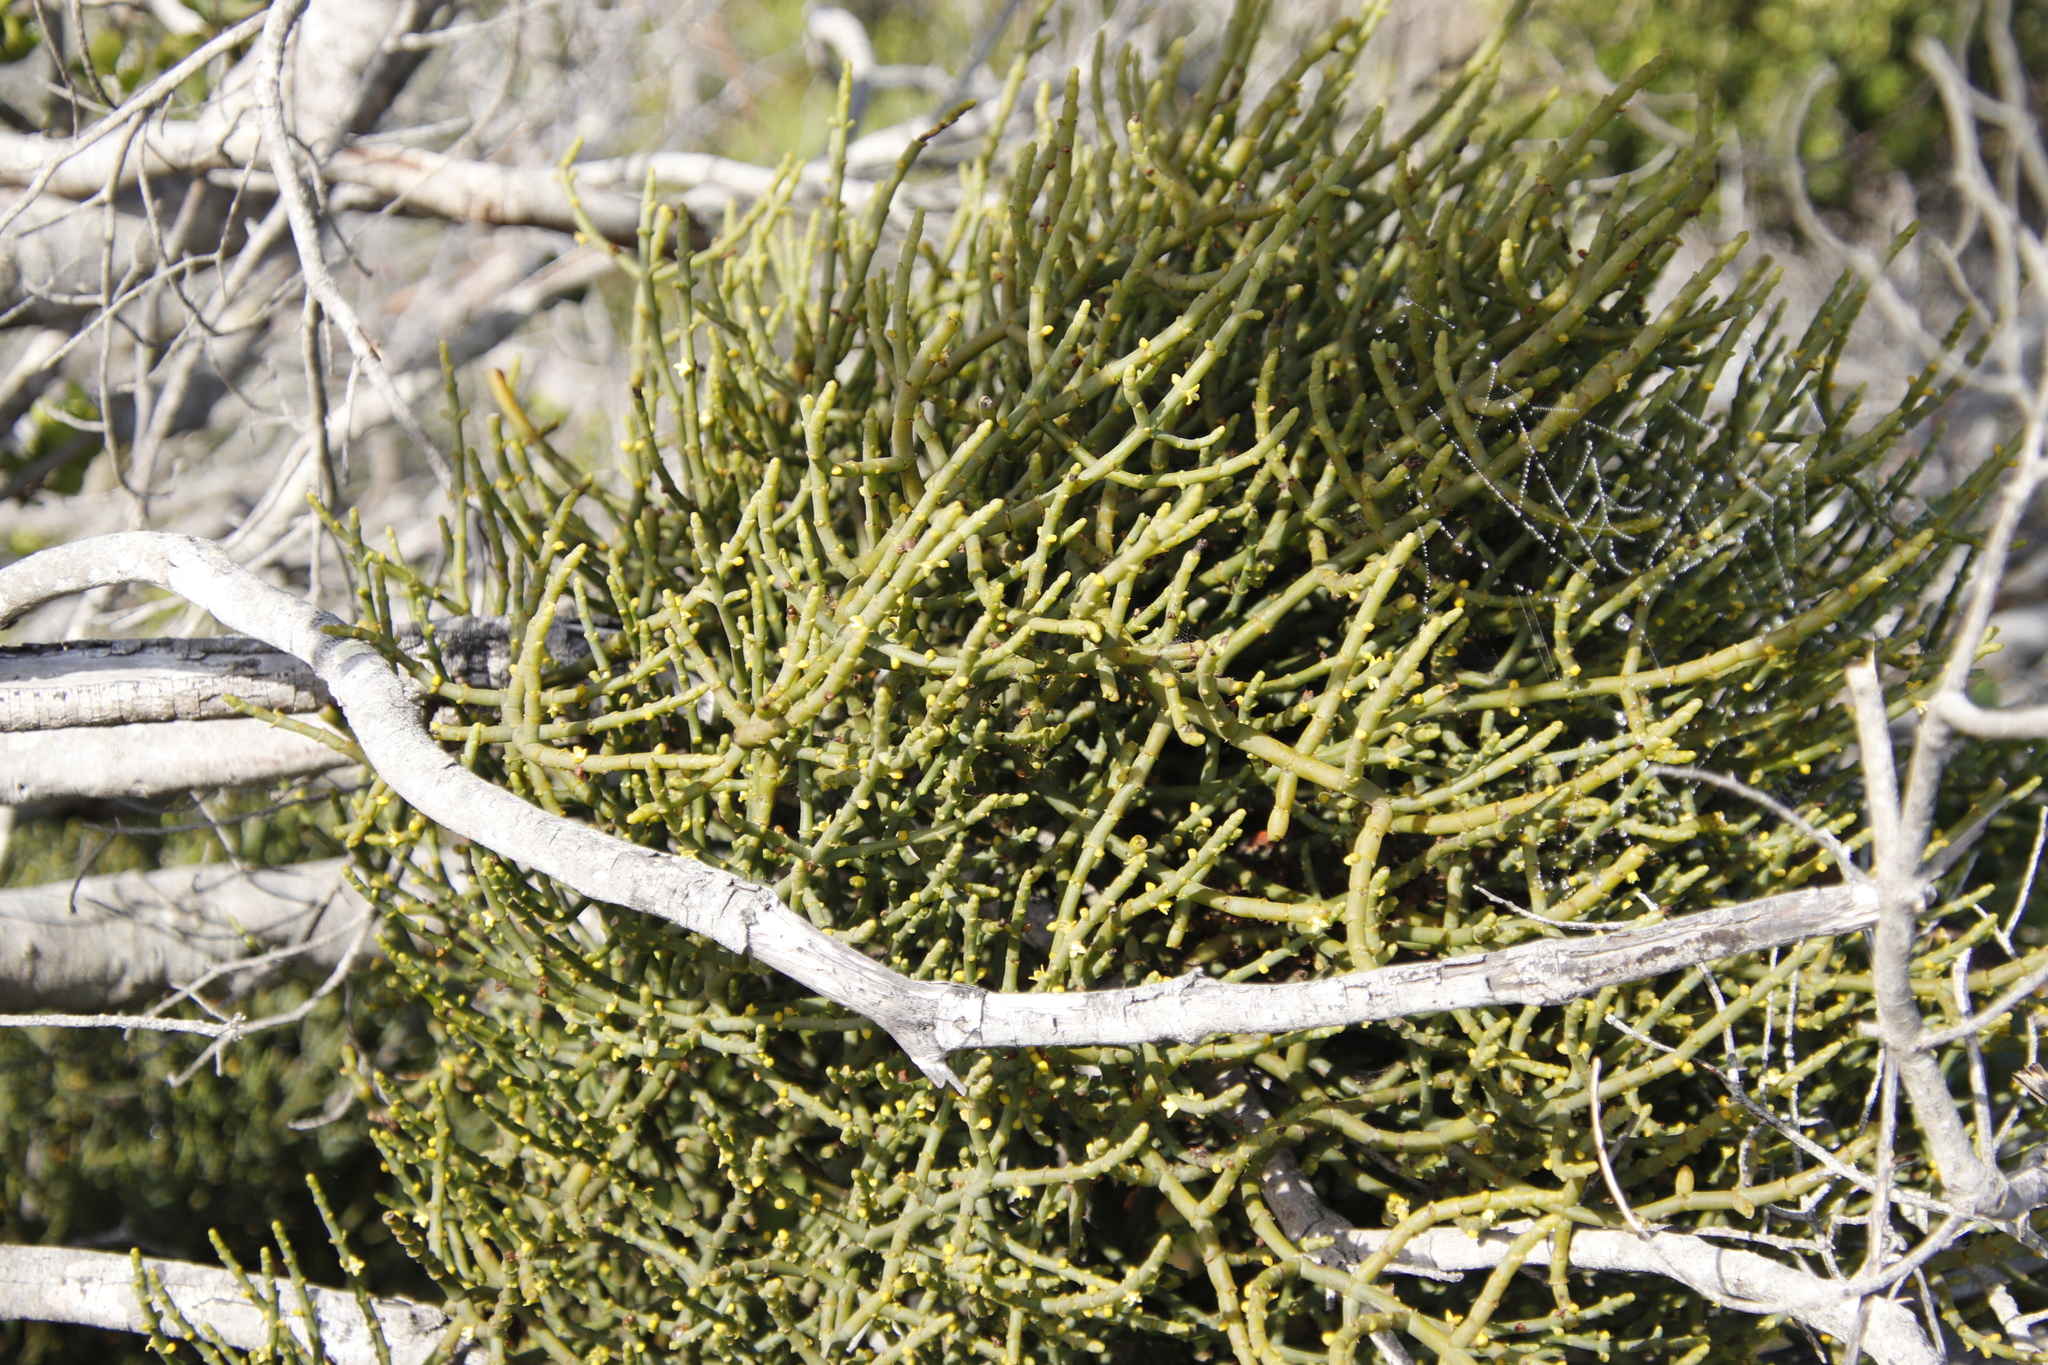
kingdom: Plantae
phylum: Tracheophyta
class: Magnoliopsida
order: Santalales
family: Viscaceae
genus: Viscum
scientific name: Viscum capense
